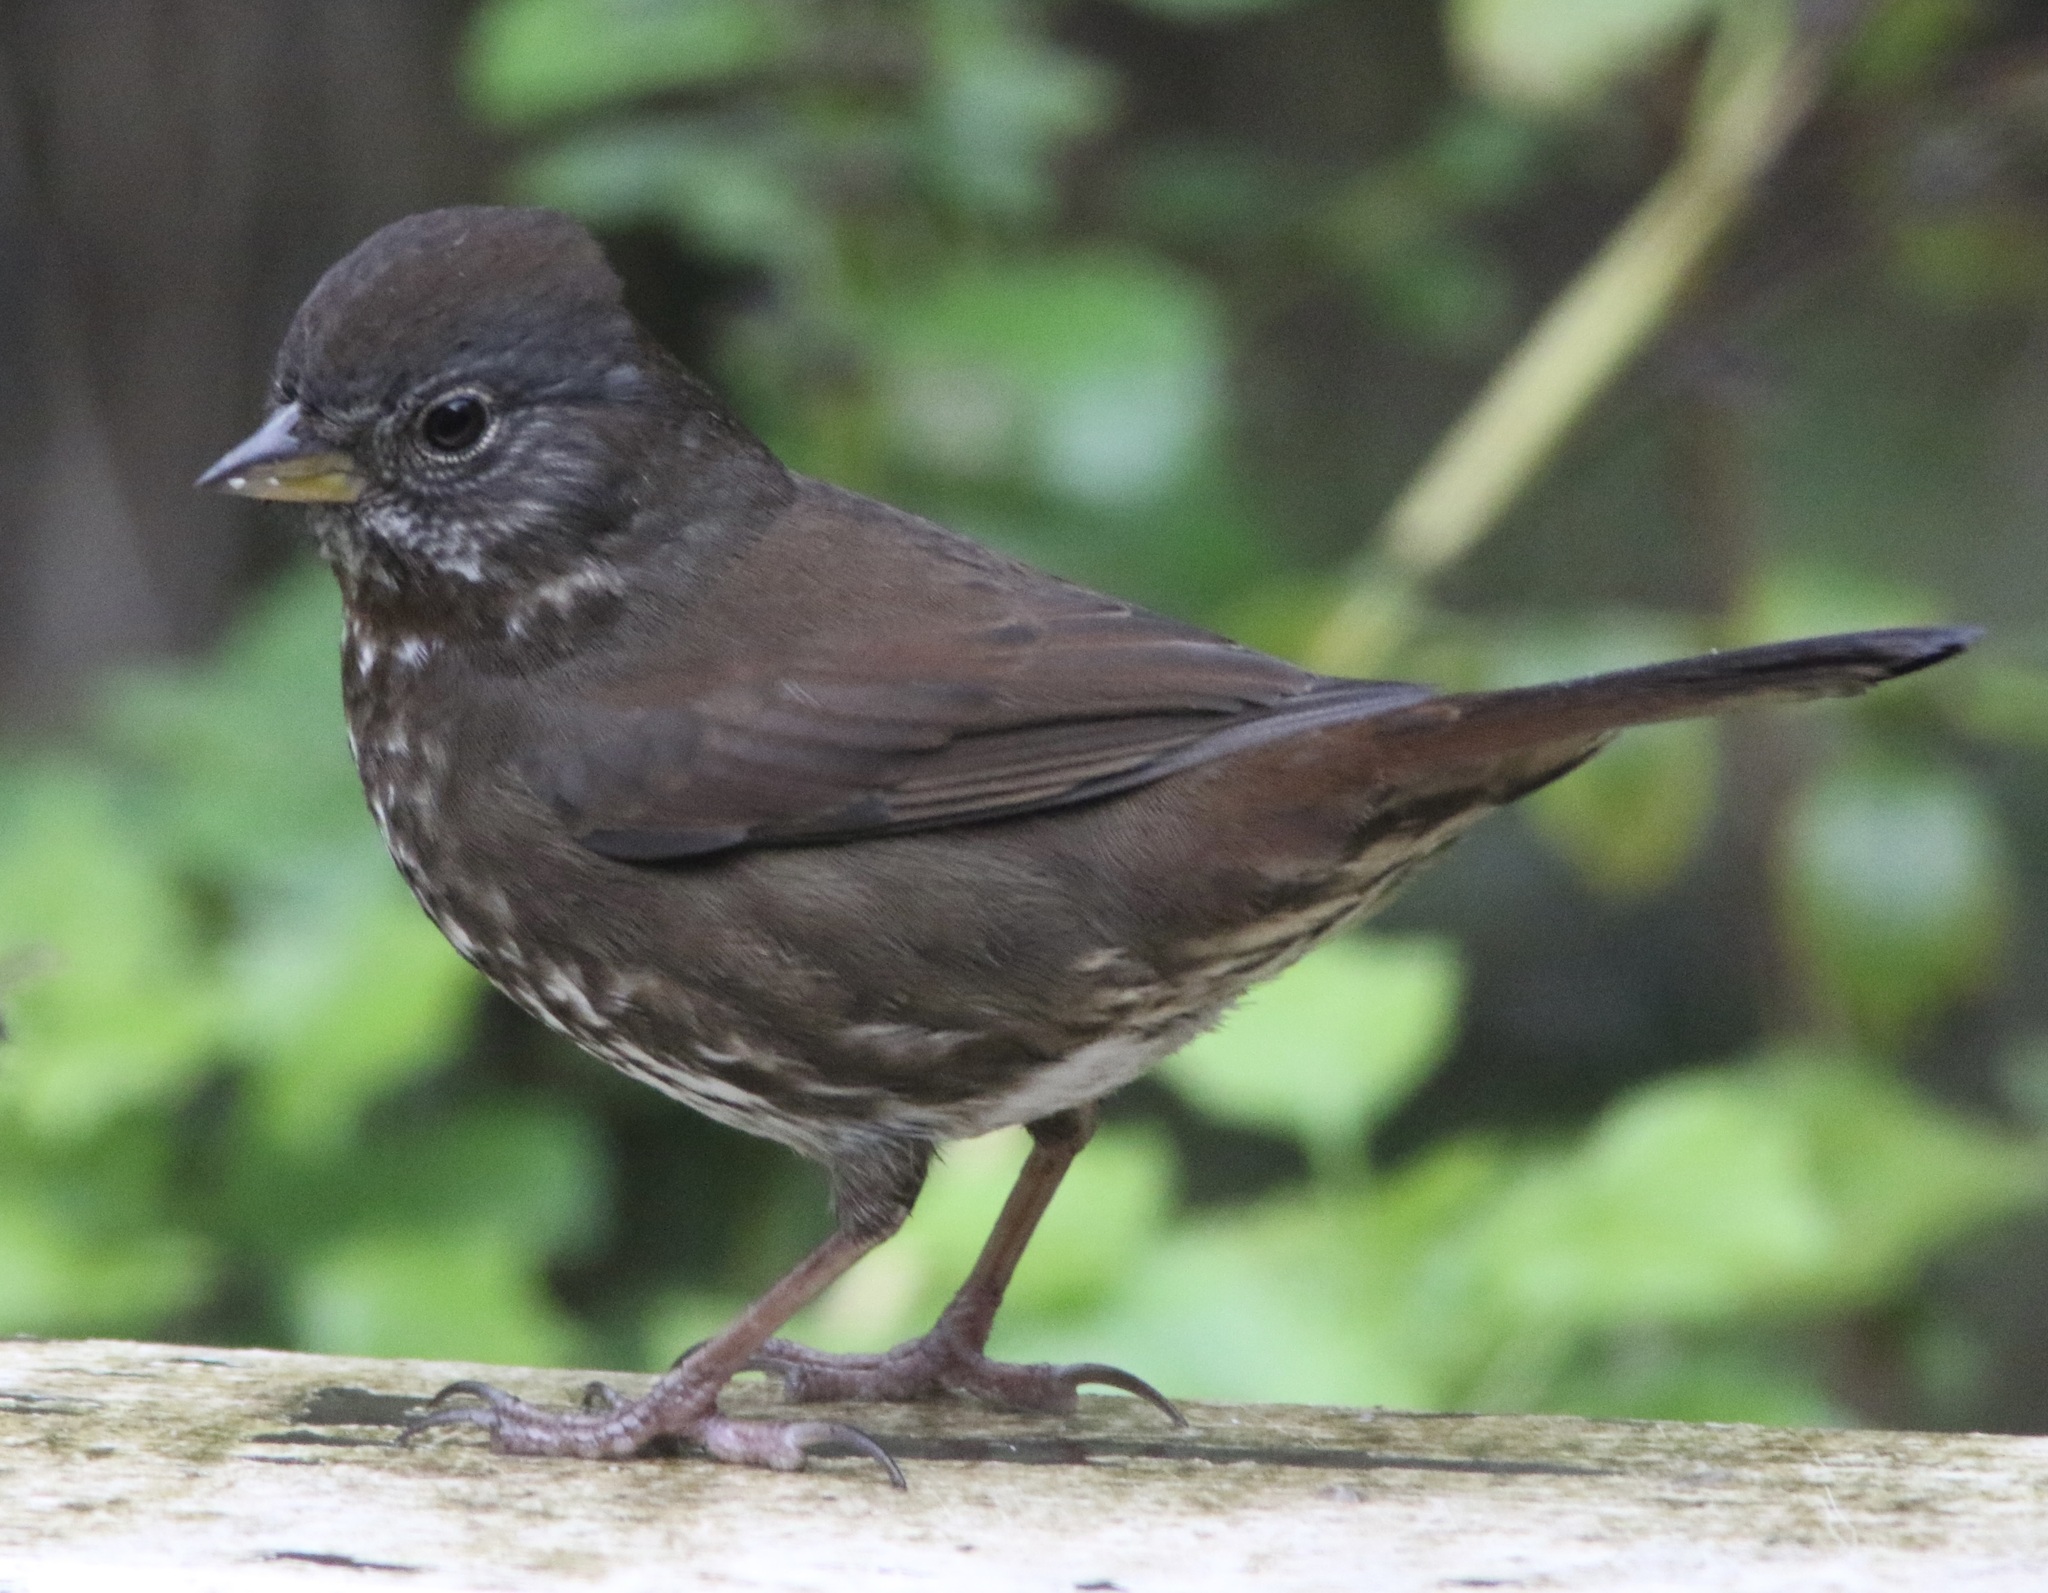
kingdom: Animalia
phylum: Chordata
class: Aves
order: Passeriformes
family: Passerellidae
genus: Passerella
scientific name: Passerella iliaca
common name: Fox sparrow
